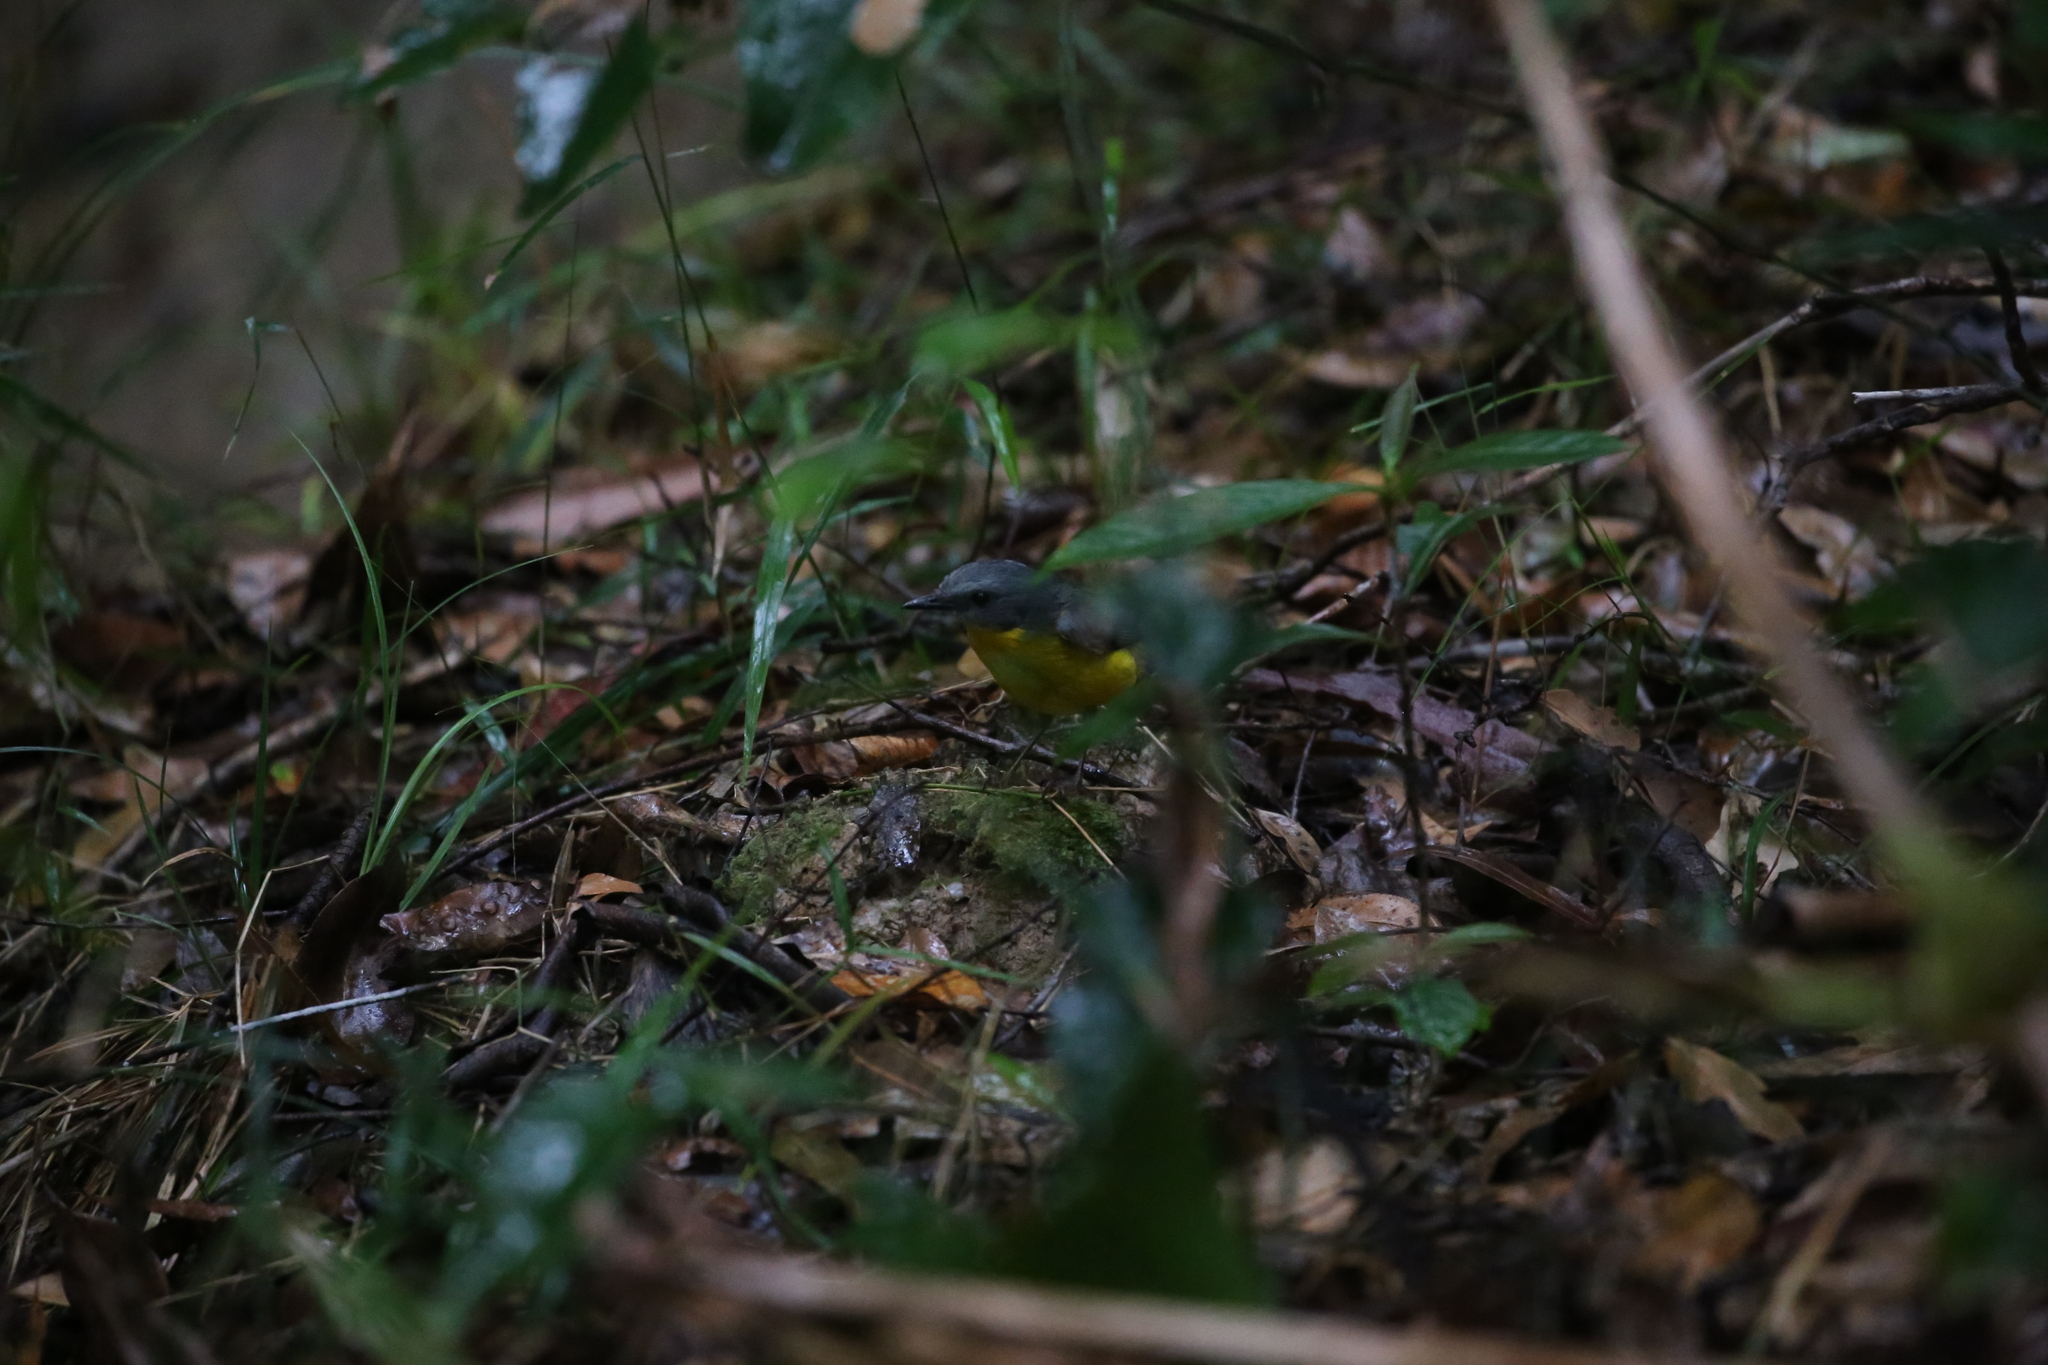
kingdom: Animalia
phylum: Chordata
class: Aves
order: Passeriformes
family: Petroicidae
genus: Eopsaltria
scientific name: Eopsaltria australis
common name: Eastern yellow robin
